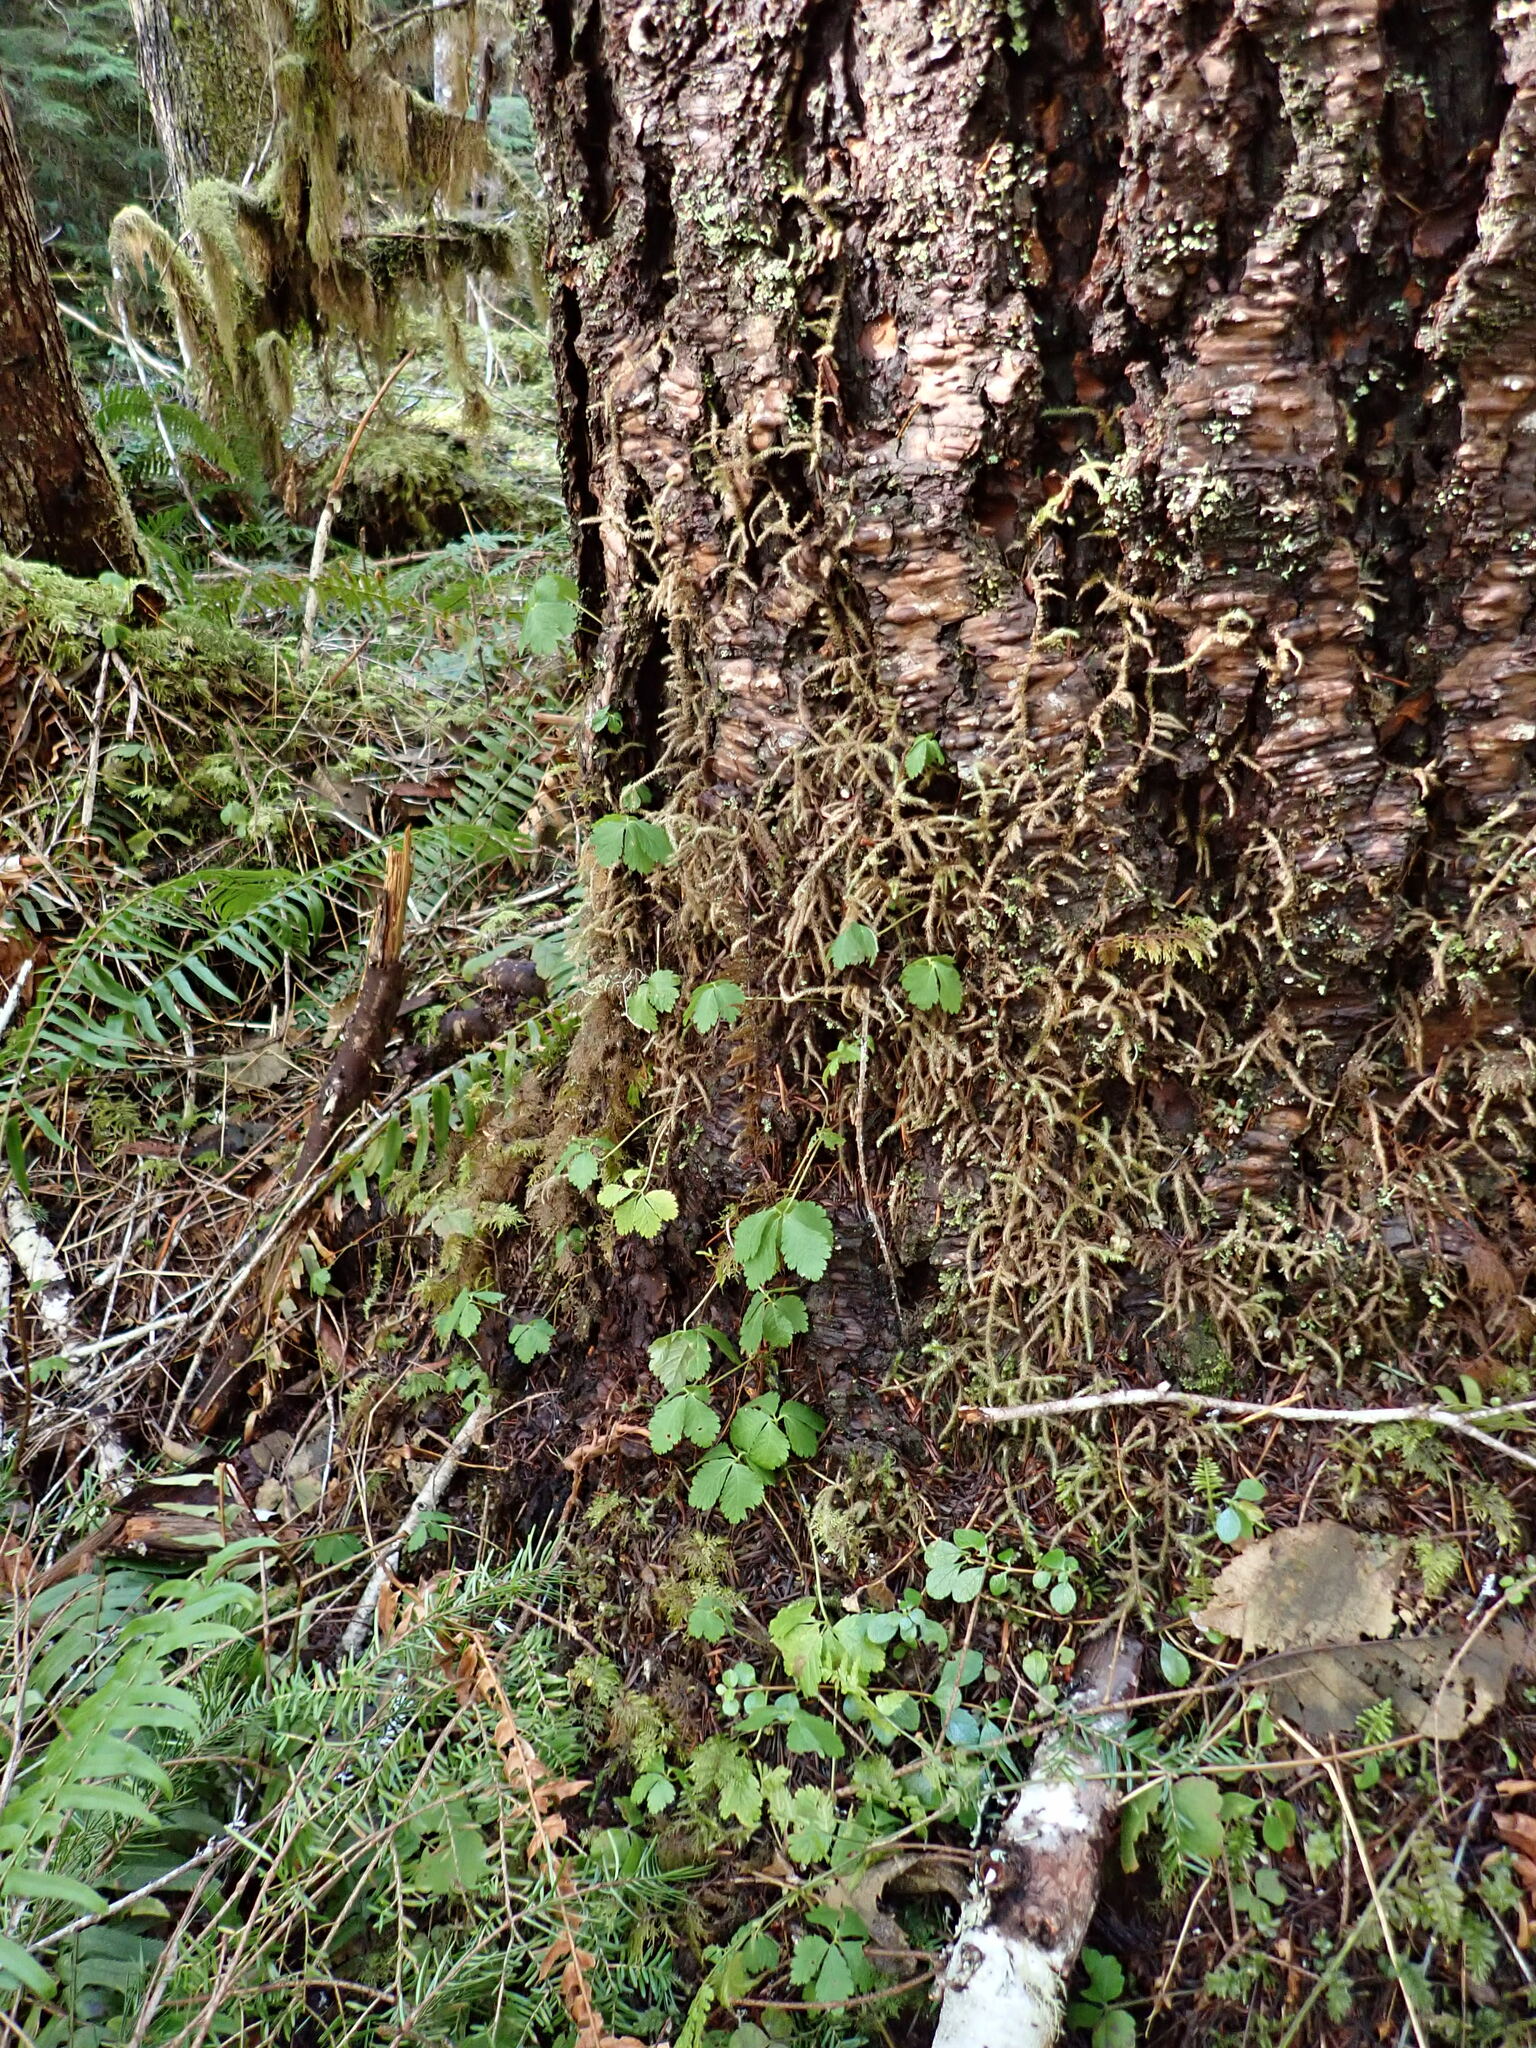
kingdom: Plantae
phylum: Tracheophyta
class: Magnoliopsida
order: Rosales
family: Rosaceae
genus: Rubus
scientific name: Rubus pedatus
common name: Creeping raspberry
